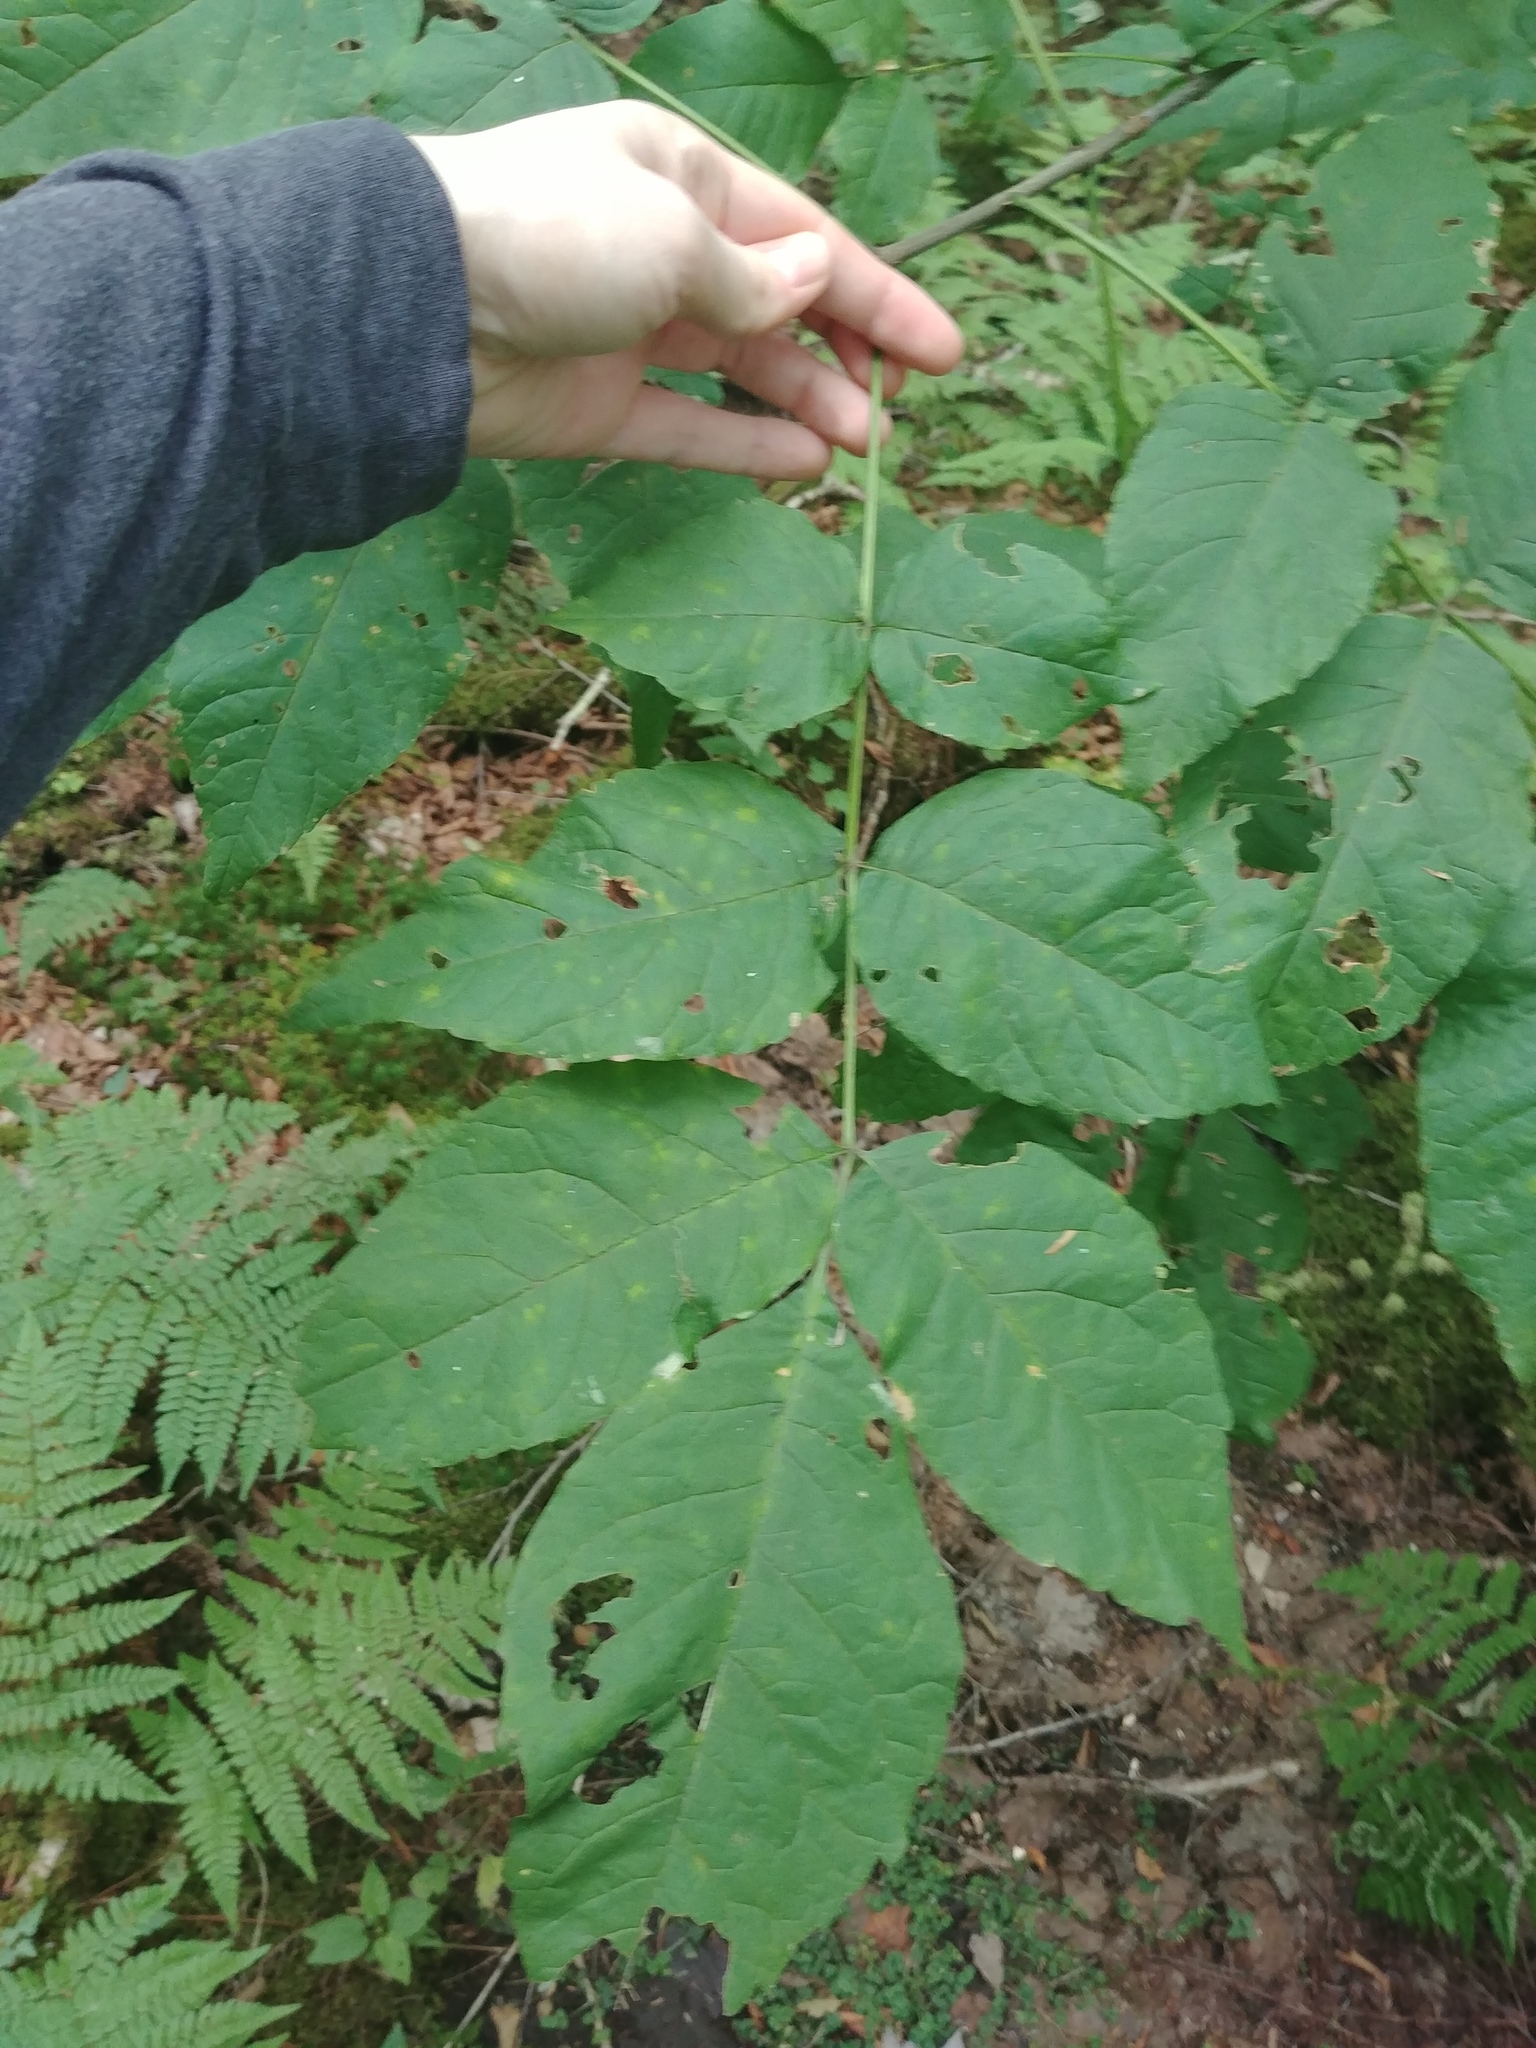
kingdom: Plantae
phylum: Tracheophyta
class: Magnoliopsida
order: Lamiales
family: Oleaceae
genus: Fraxinus
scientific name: Fraxinus nigra
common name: Black ash
